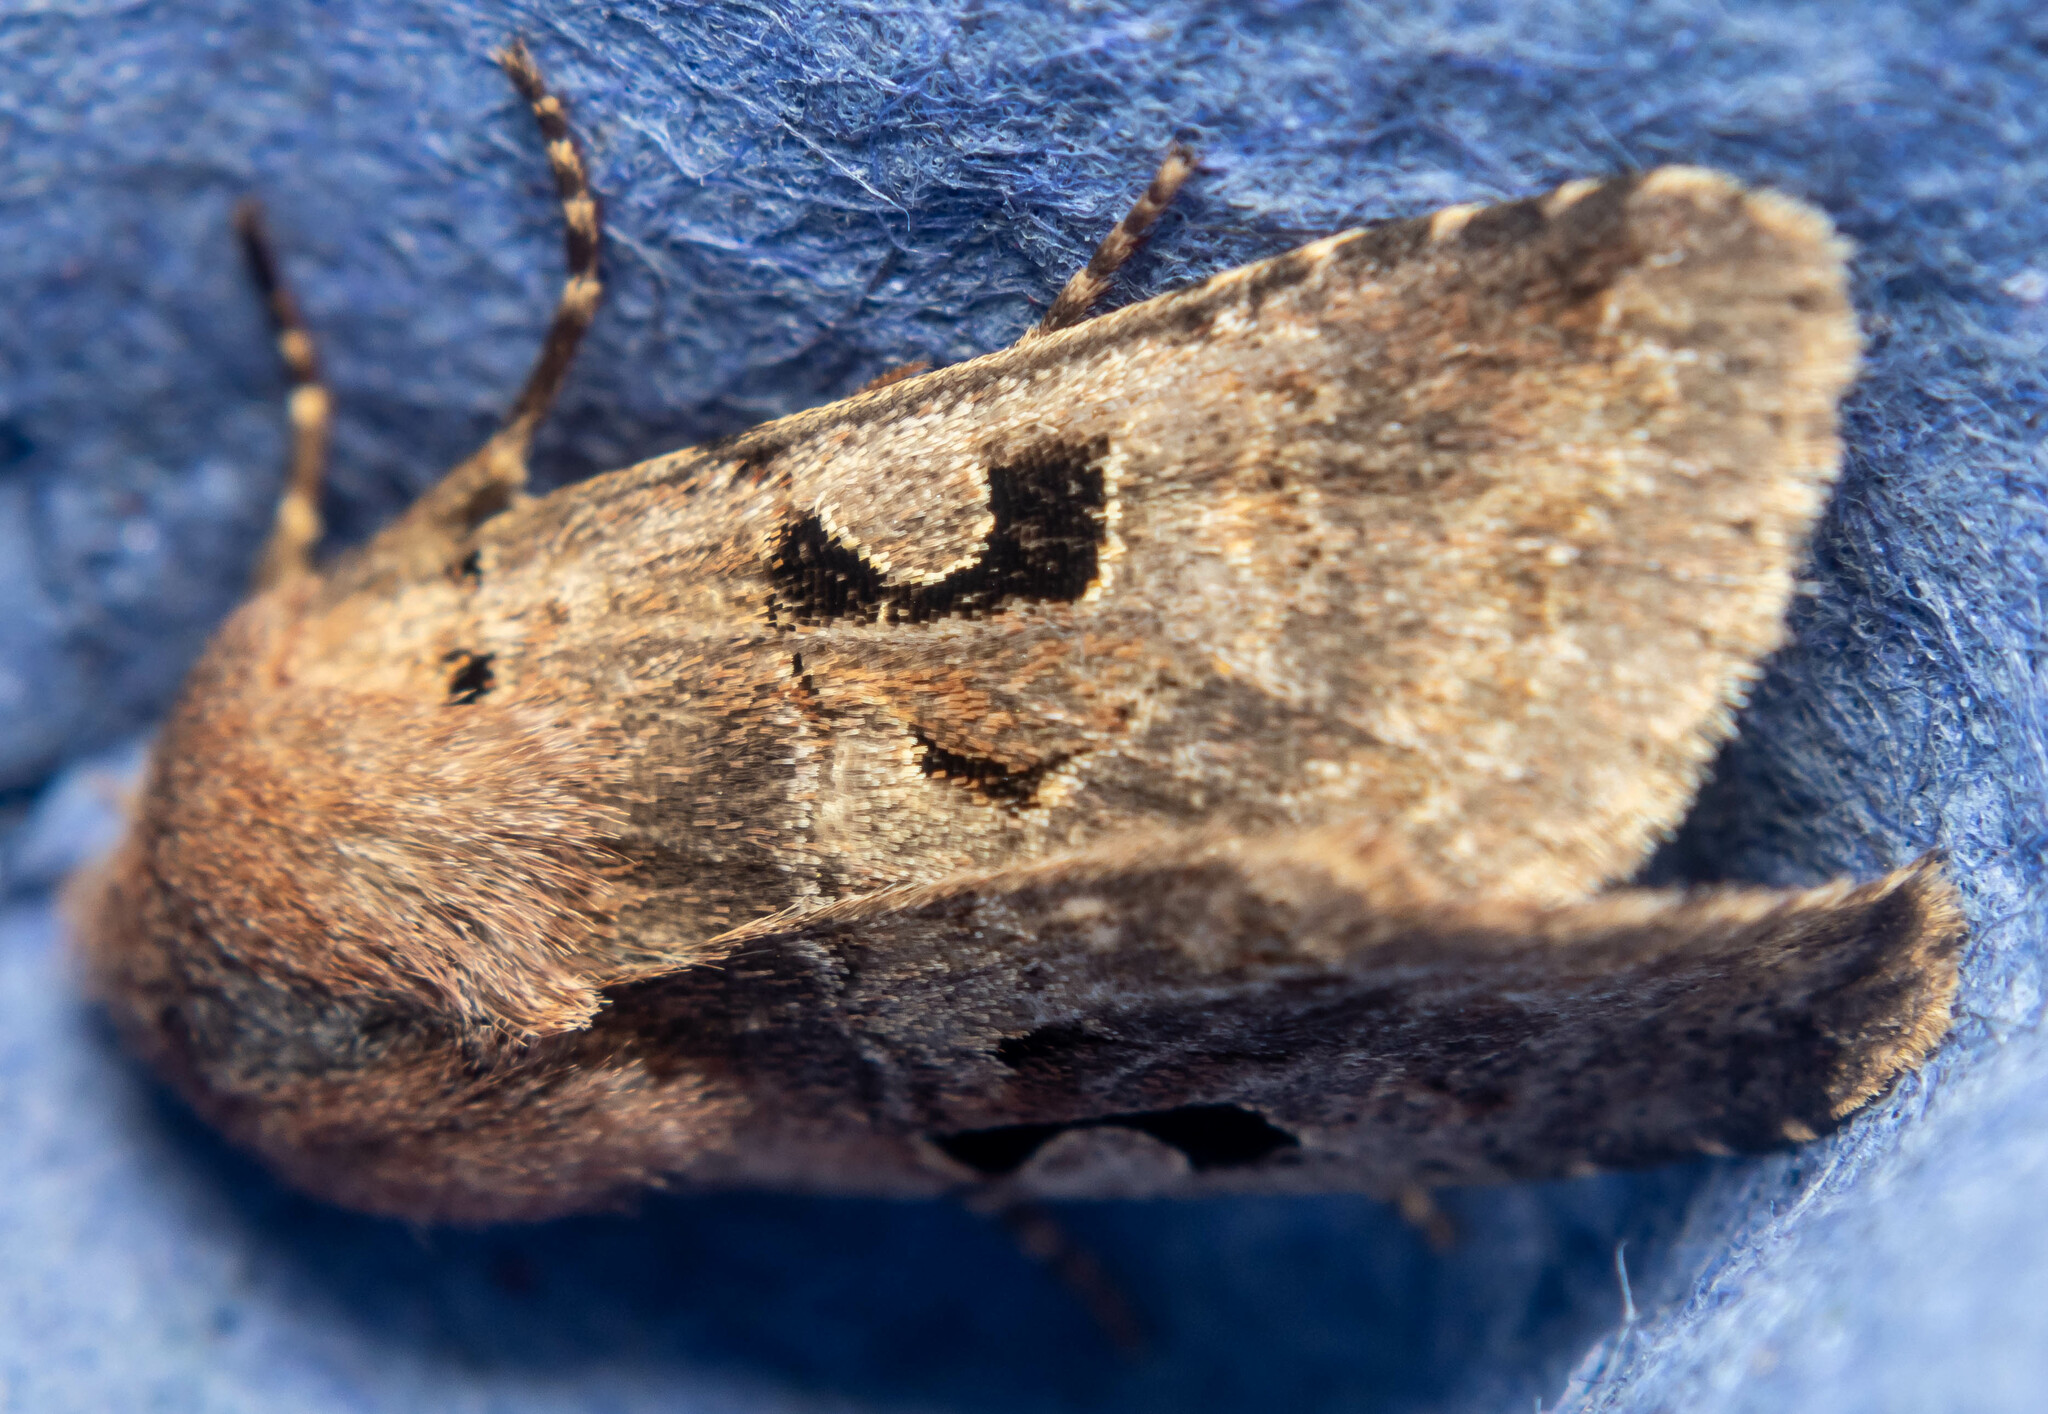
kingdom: Animalia
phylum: Arthropoda
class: Insecta
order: Lepidoptera
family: Noctuidae
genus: Orthosia
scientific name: Orthosia gothica
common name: Hebrew character
